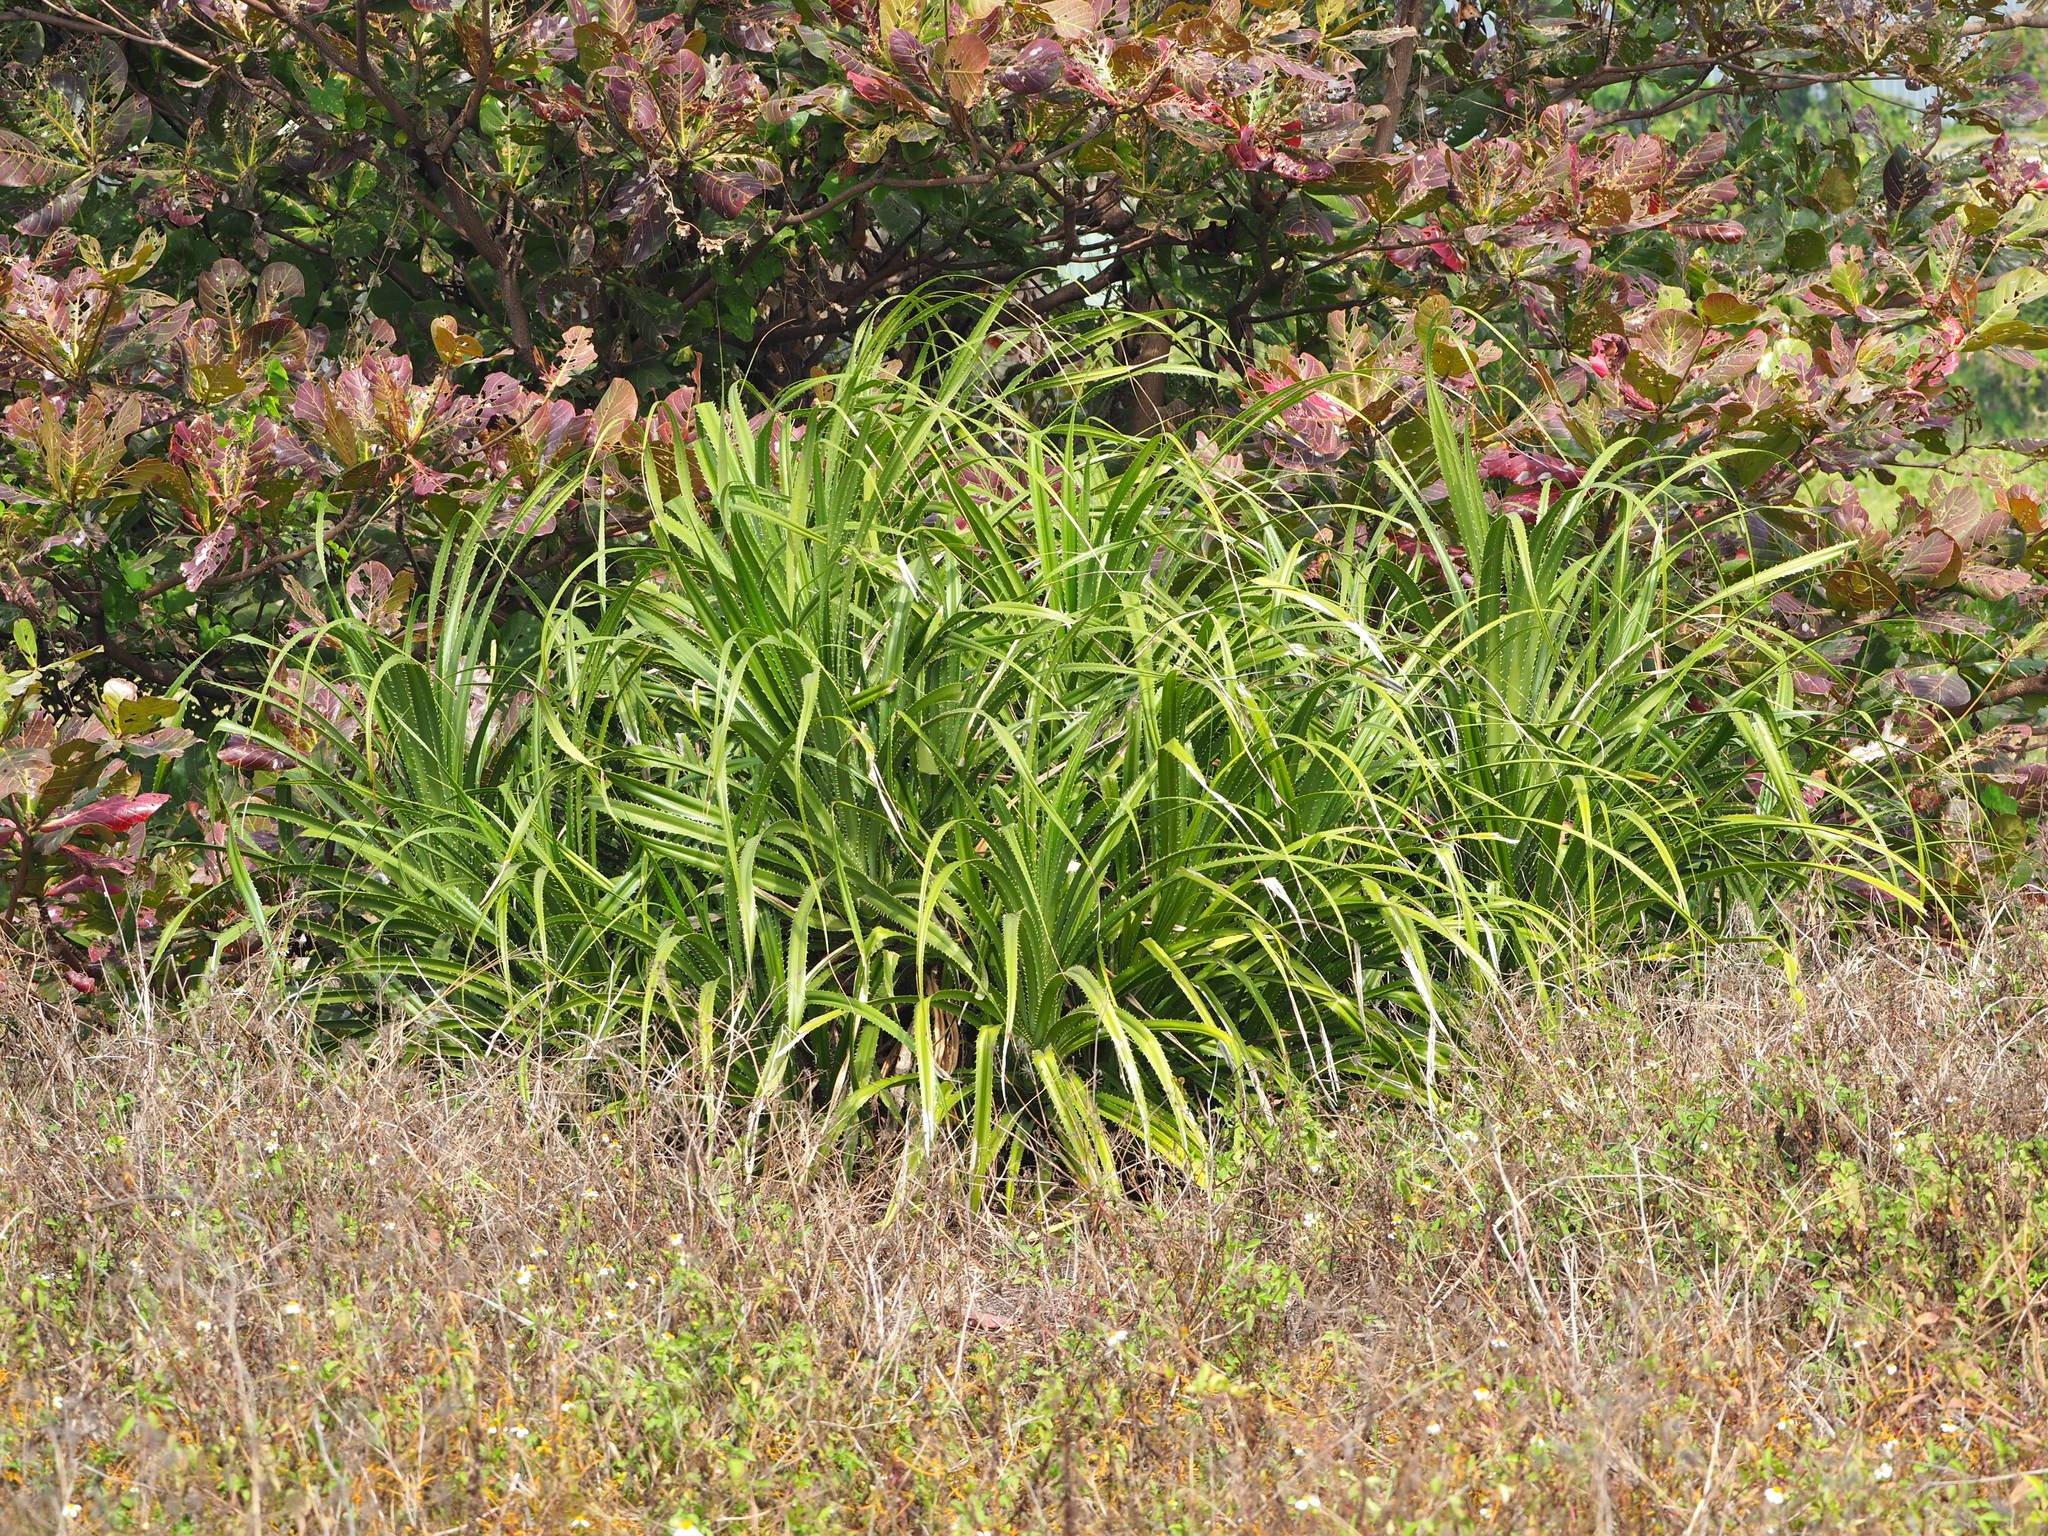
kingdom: Plantae
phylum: Tracheophyta
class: Liliopsida
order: Pandanales
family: Pandanaceae
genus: Pandanus
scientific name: Pandanus odorifer
